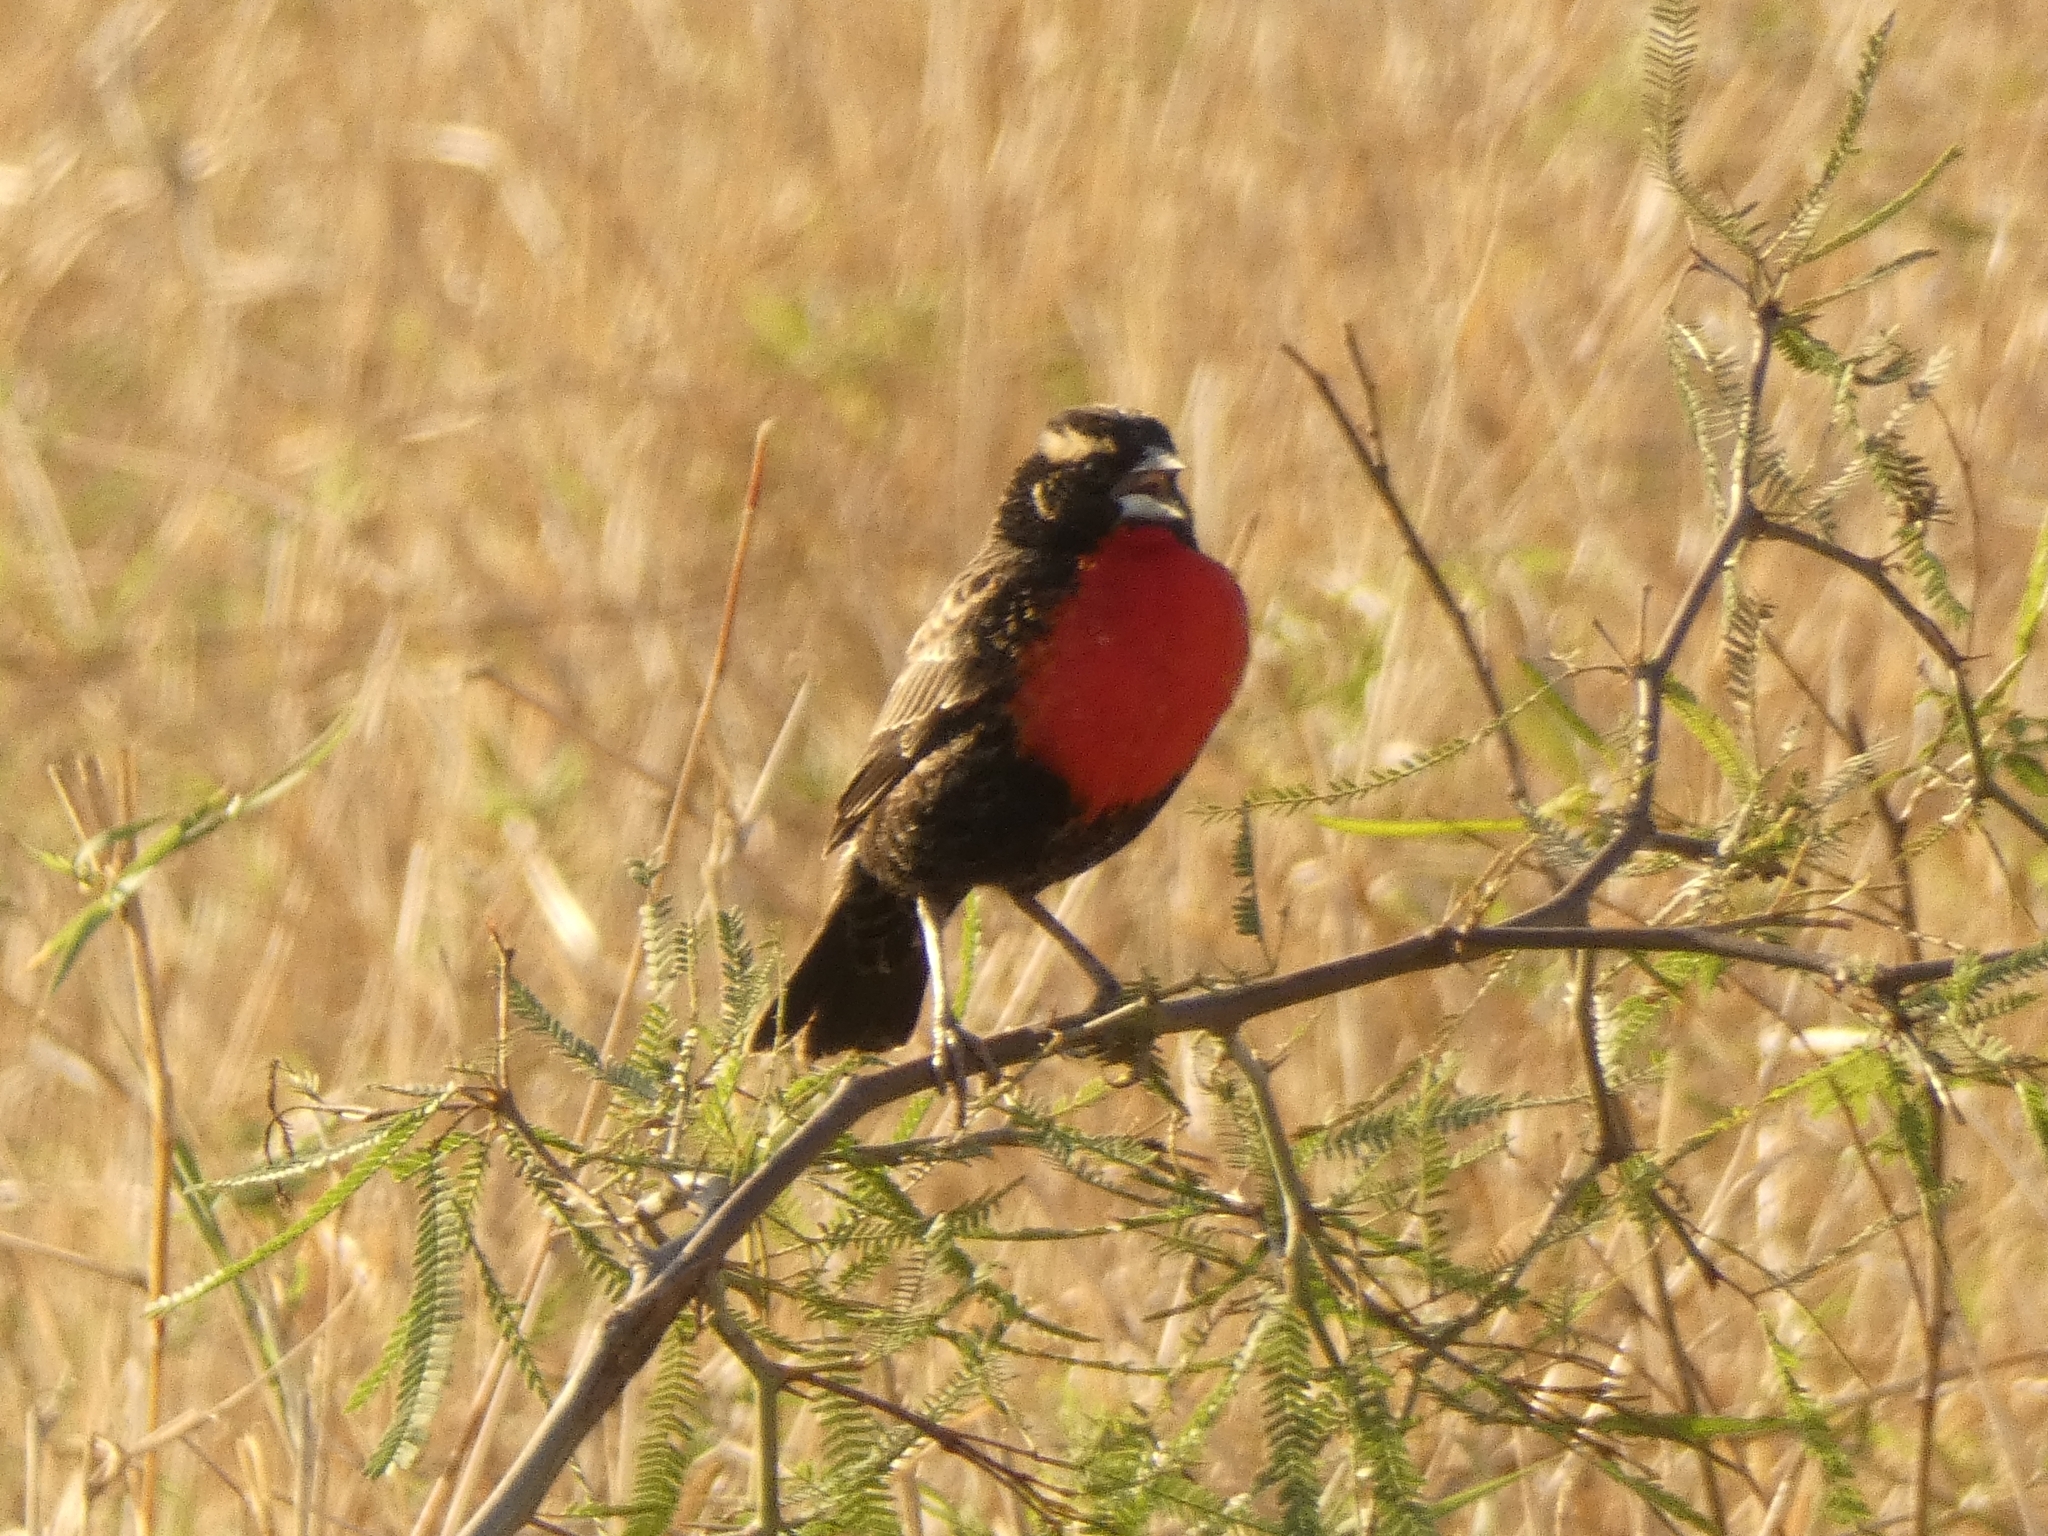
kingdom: Animalia
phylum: Chordata
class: Aves
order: Passeriformes
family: Icteridae
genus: Sturnella
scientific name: Sturnella superciliaris
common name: White-browed blackbird
